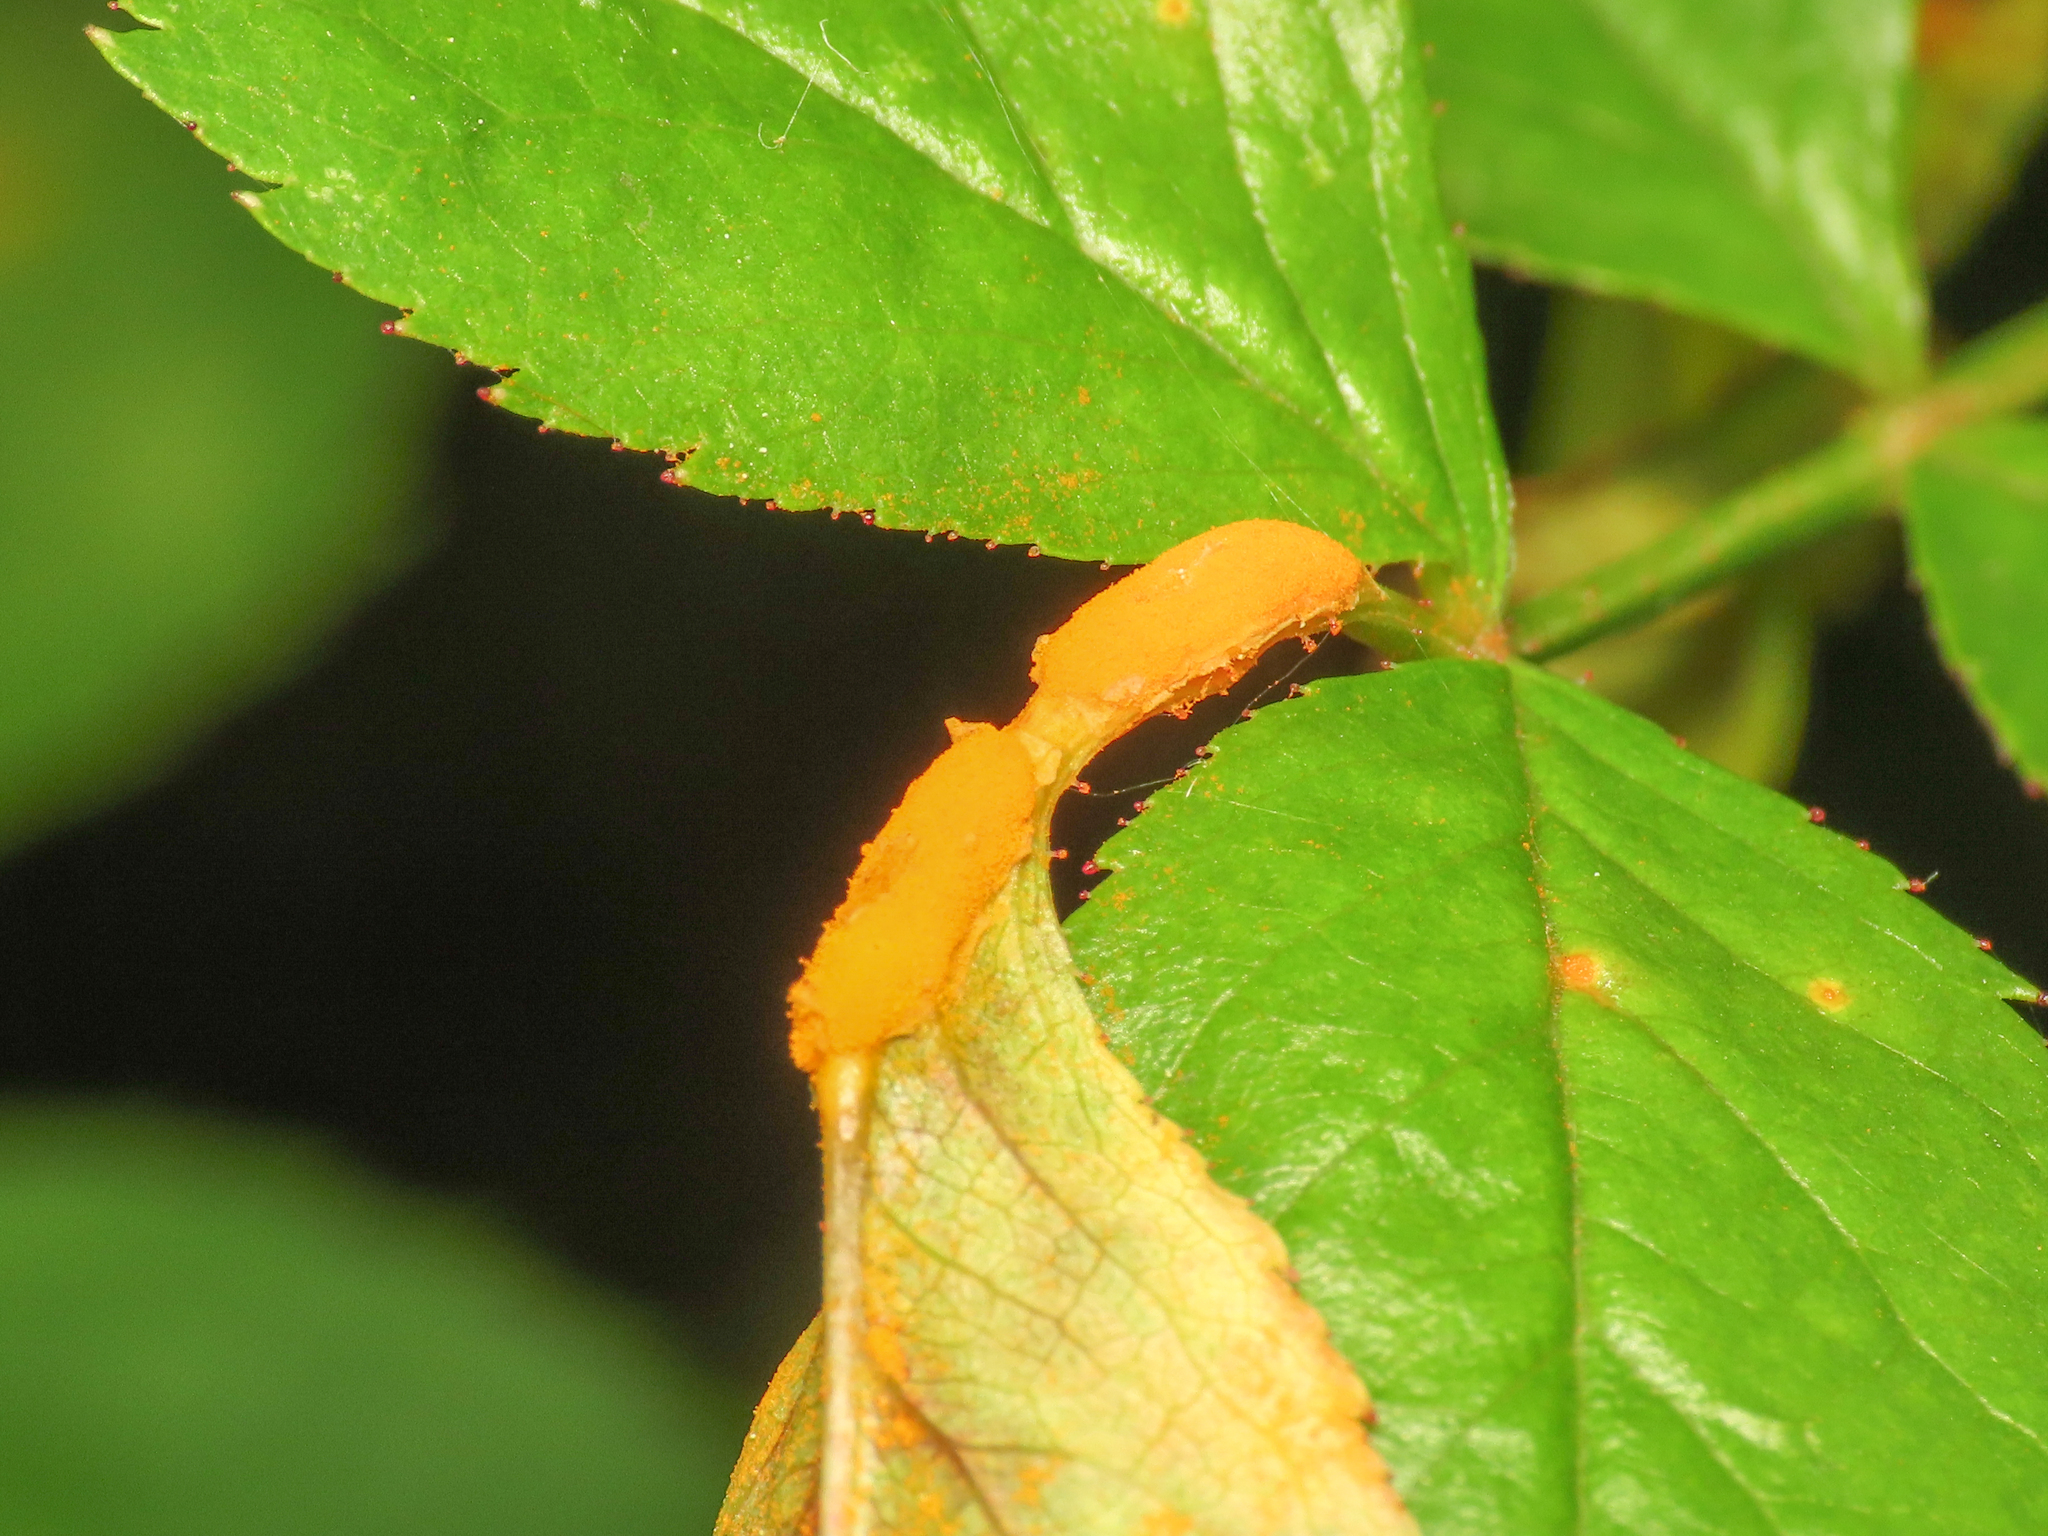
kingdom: Fungi
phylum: Basidiomycota
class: Pucciniomycetes
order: Pucciniales
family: Phragmidiaceae
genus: Phragmidium
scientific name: Phragmidium
